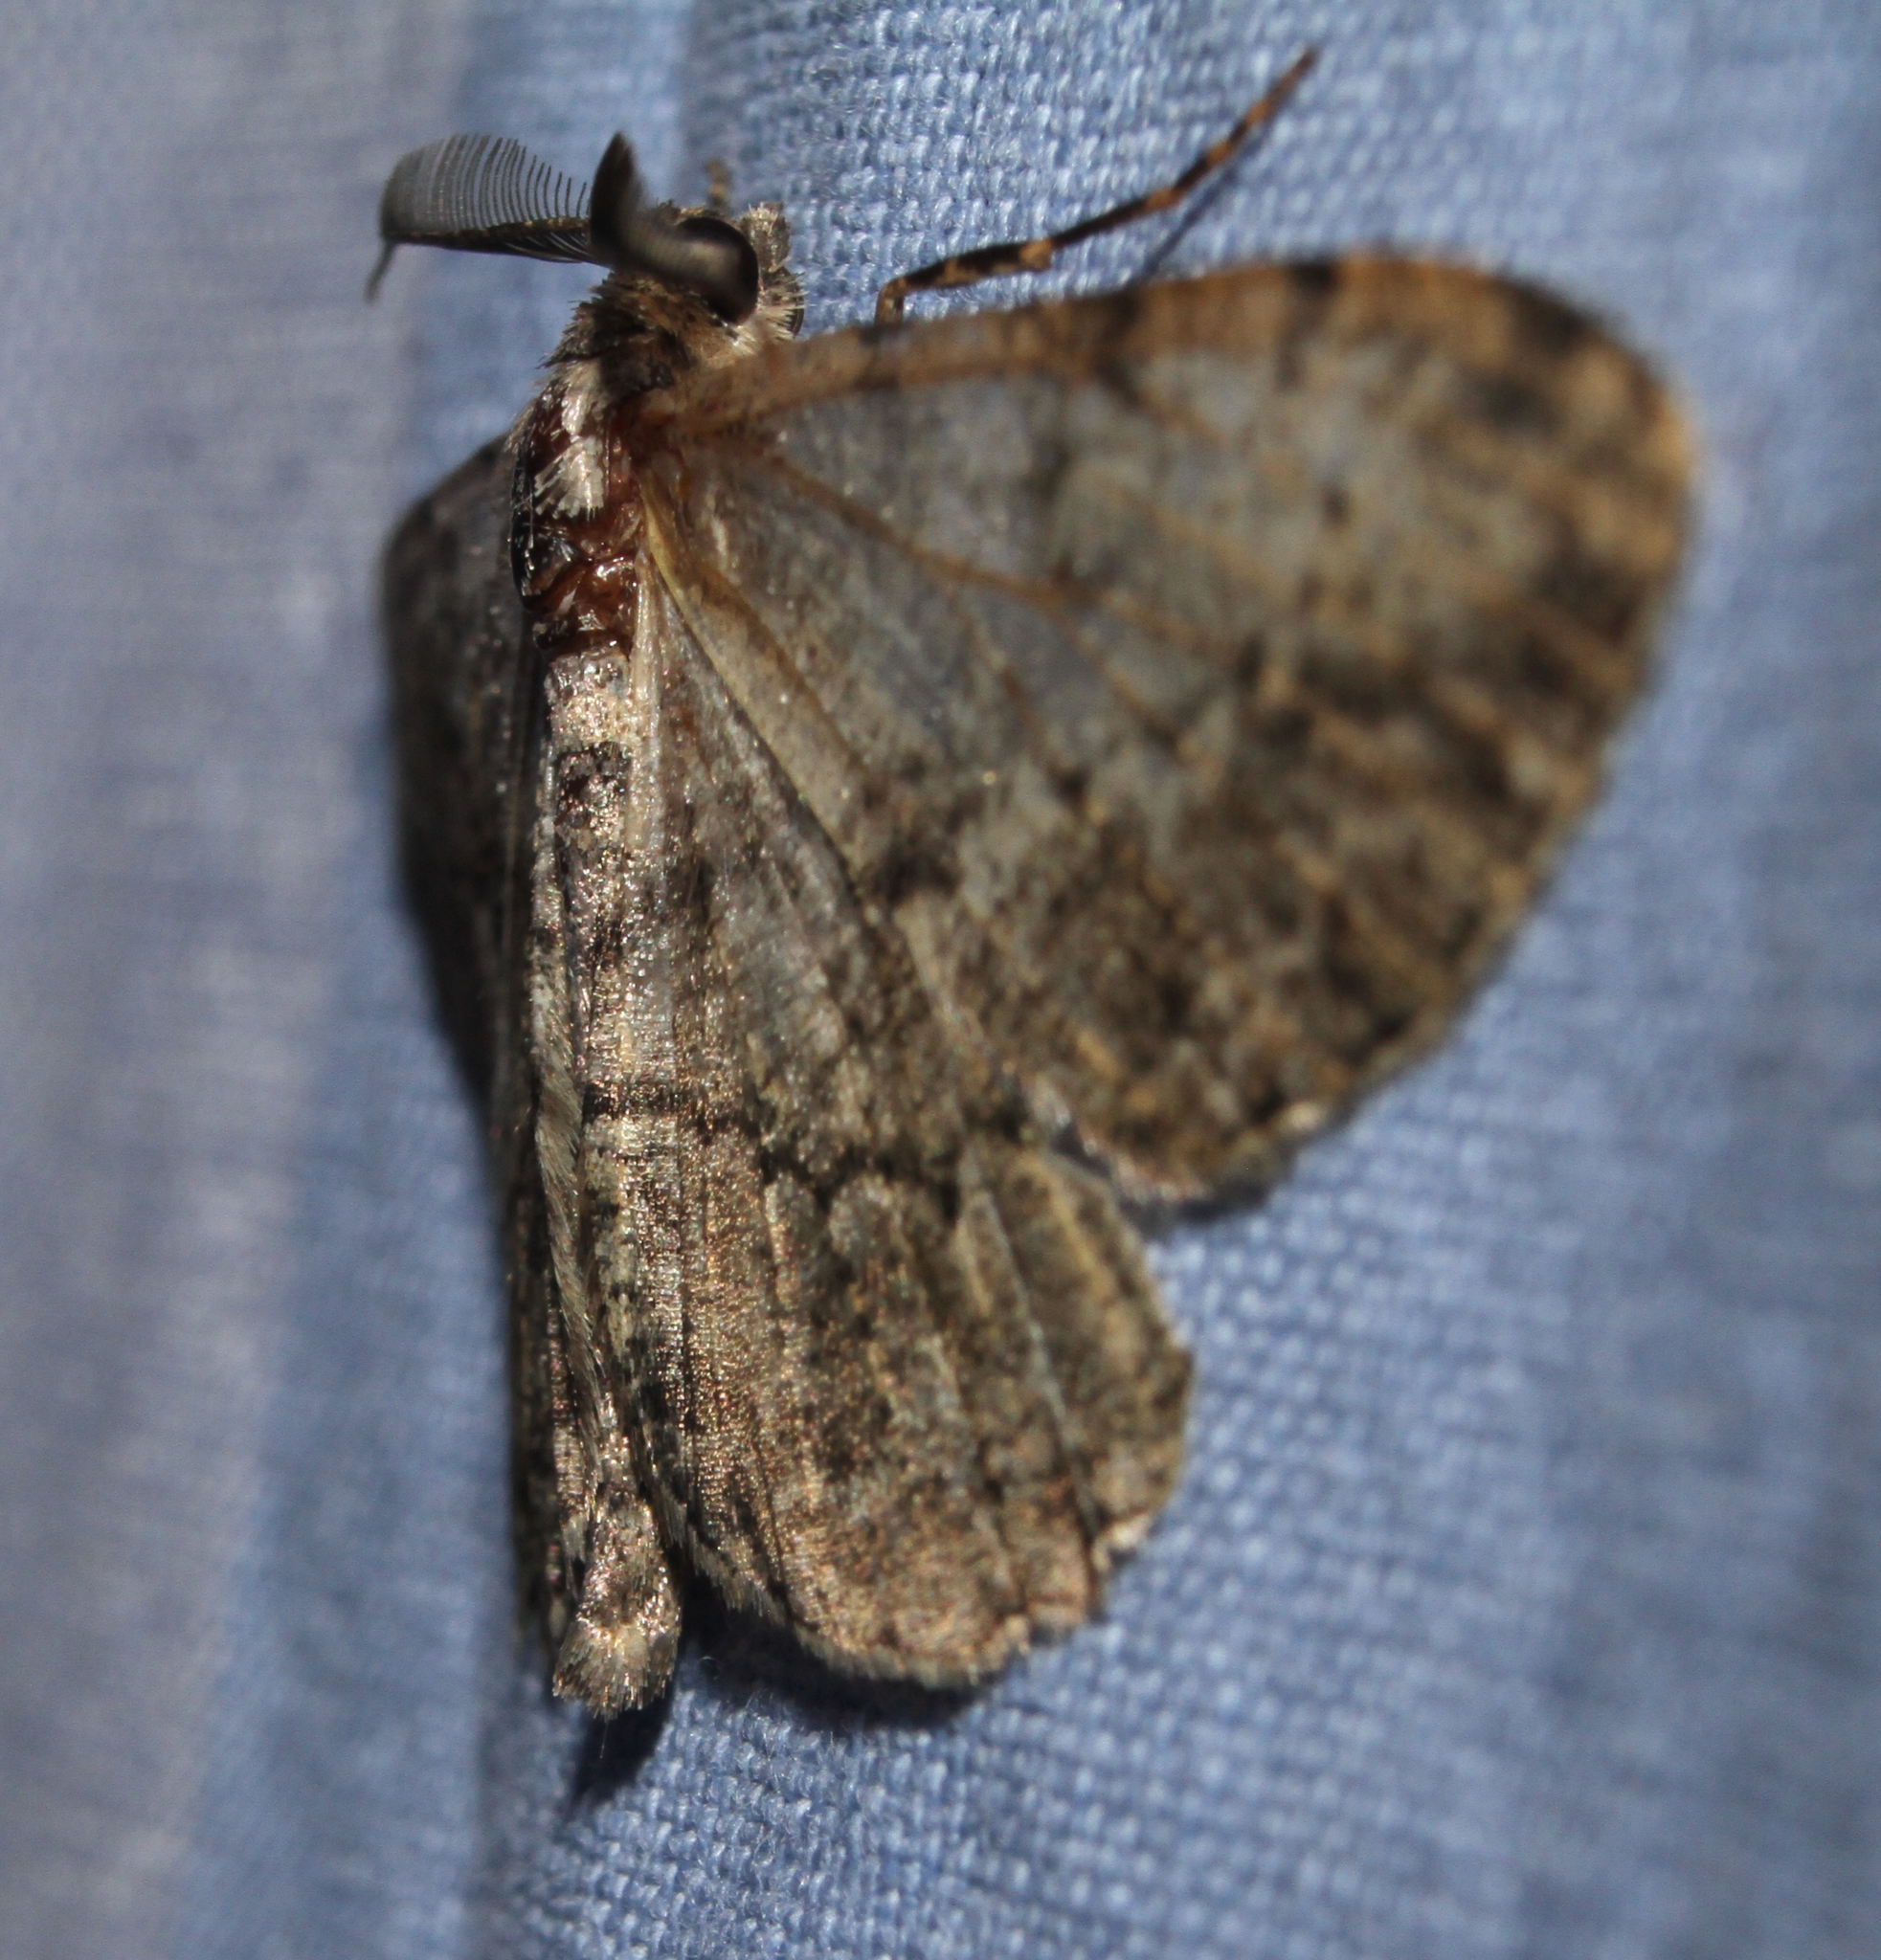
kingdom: Animalia
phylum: Arthropoda
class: Insecta
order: Lepidoptera
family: Geometridae
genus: Peribatodes
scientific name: Peribatodes rhomboidaria
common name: Willow beauty
